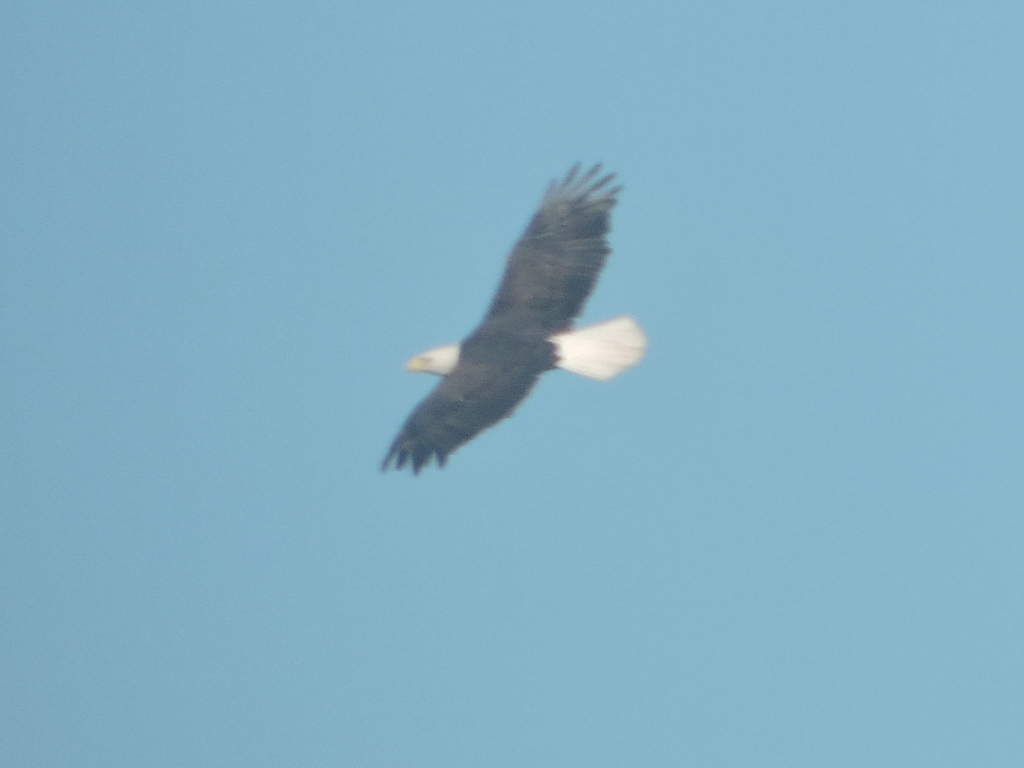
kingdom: Animalia
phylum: Chordata
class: Aves
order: Accipitriformes
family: Accipitridae
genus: Haliaeetus
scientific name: Haliaeetus leucocephalus
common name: Bald eagle
